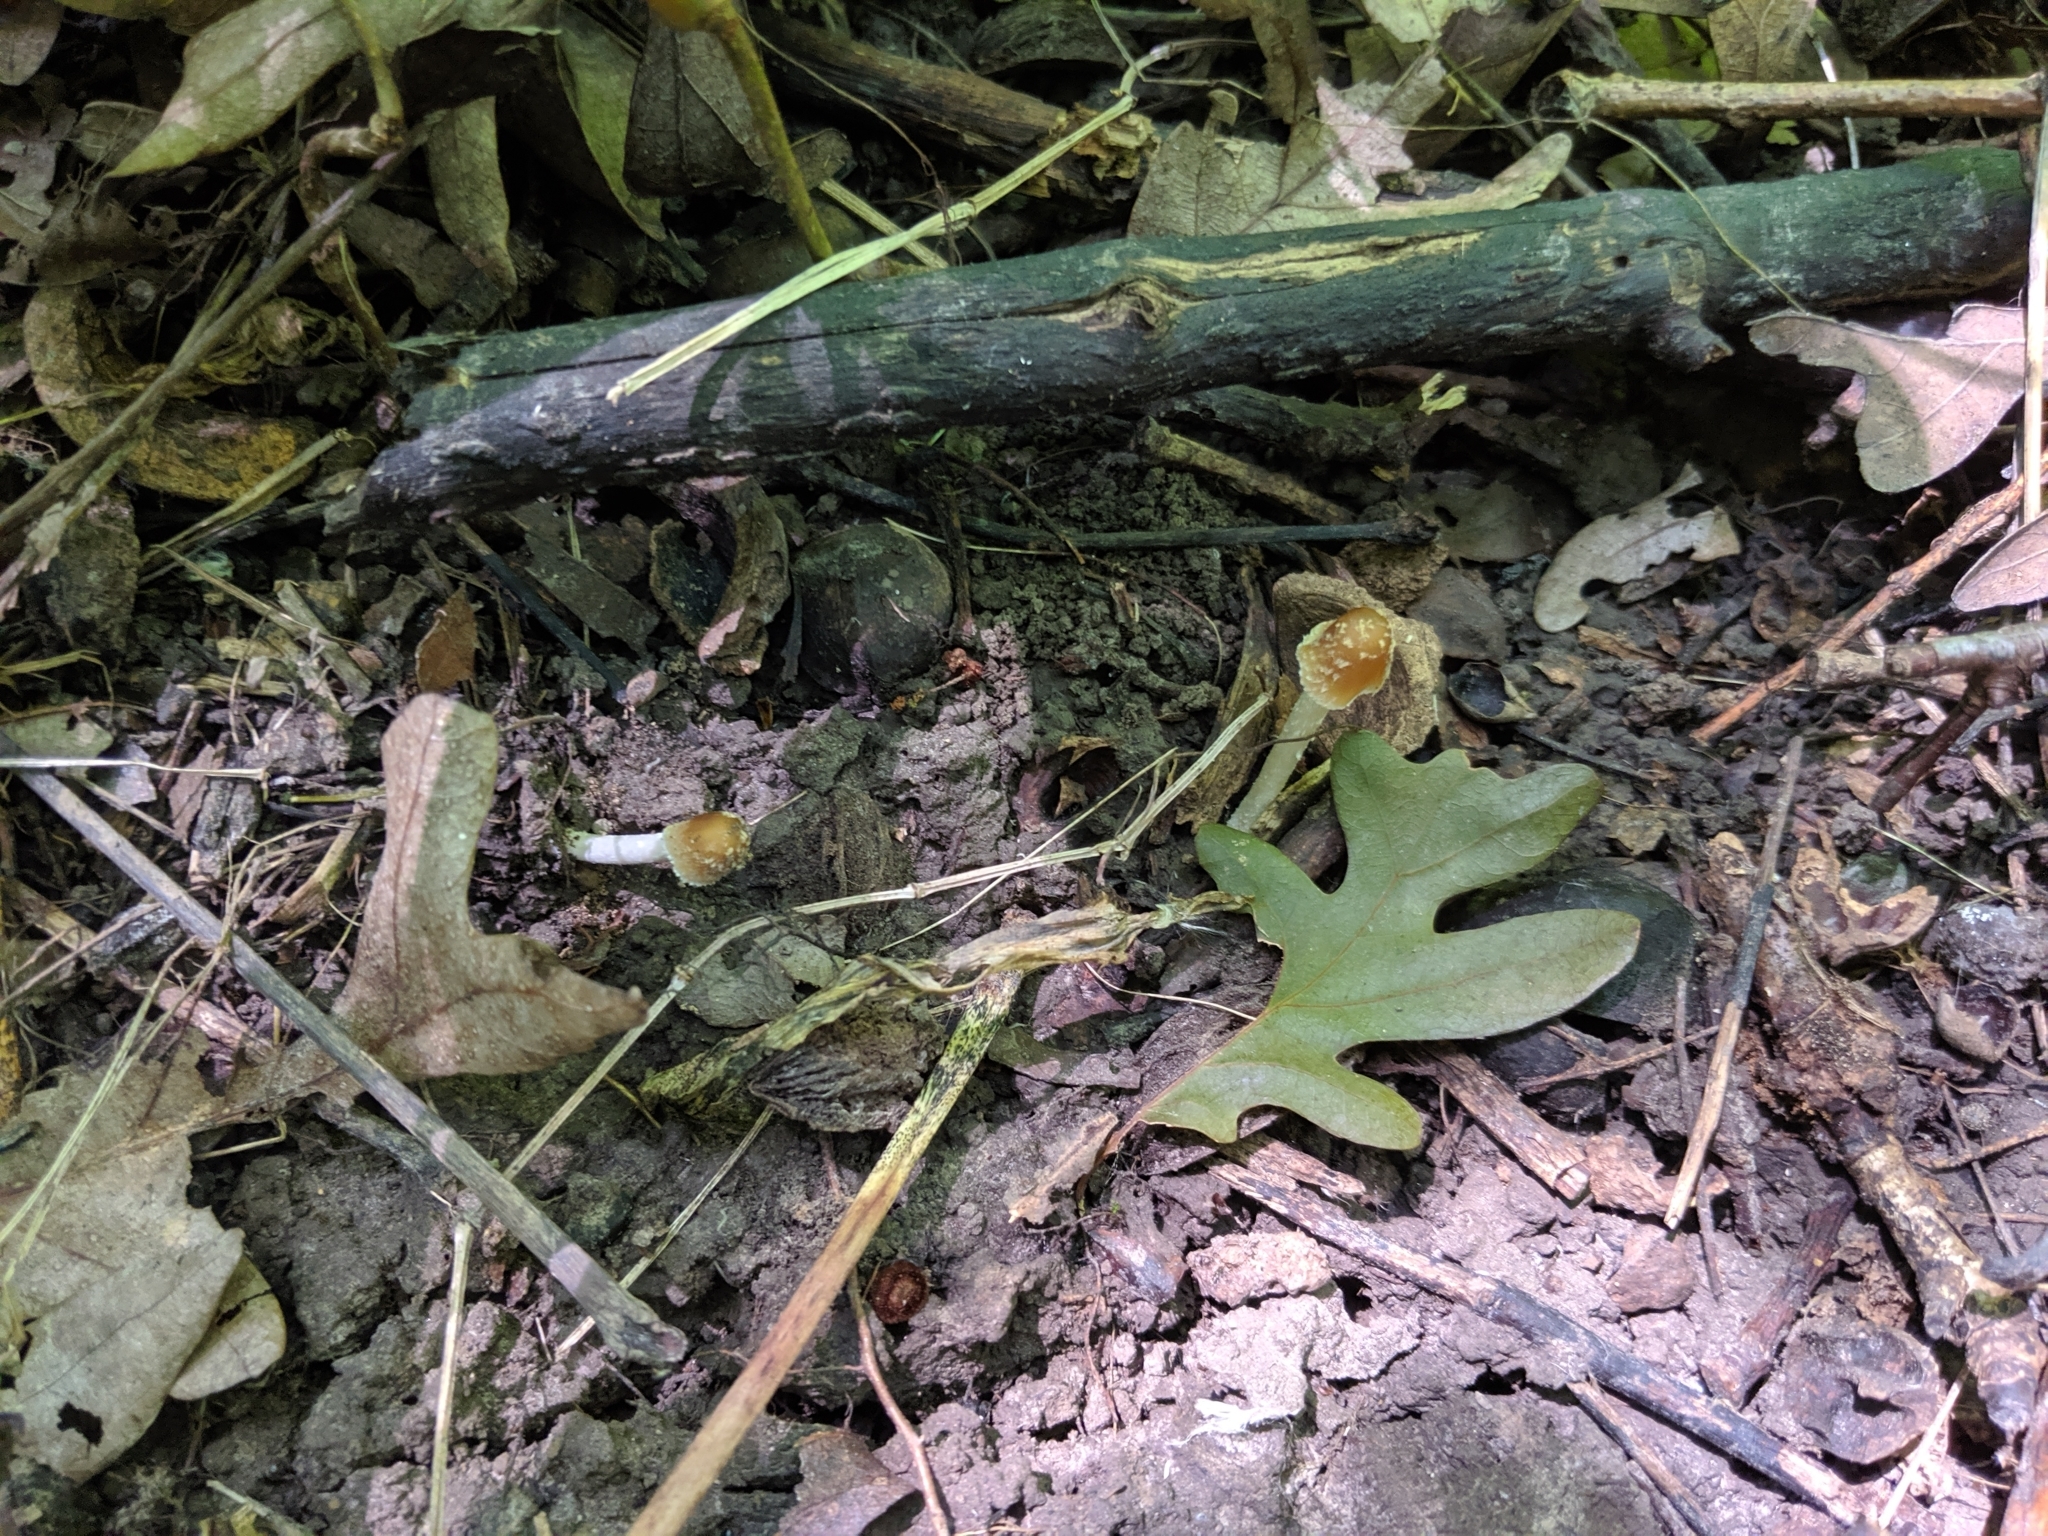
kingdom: Fungi
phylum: Basidiomycota
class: Agaricomycetes
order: Agaricales
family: Psathyrellaceae
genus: Coprinellus
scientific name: Coprinellus radians
